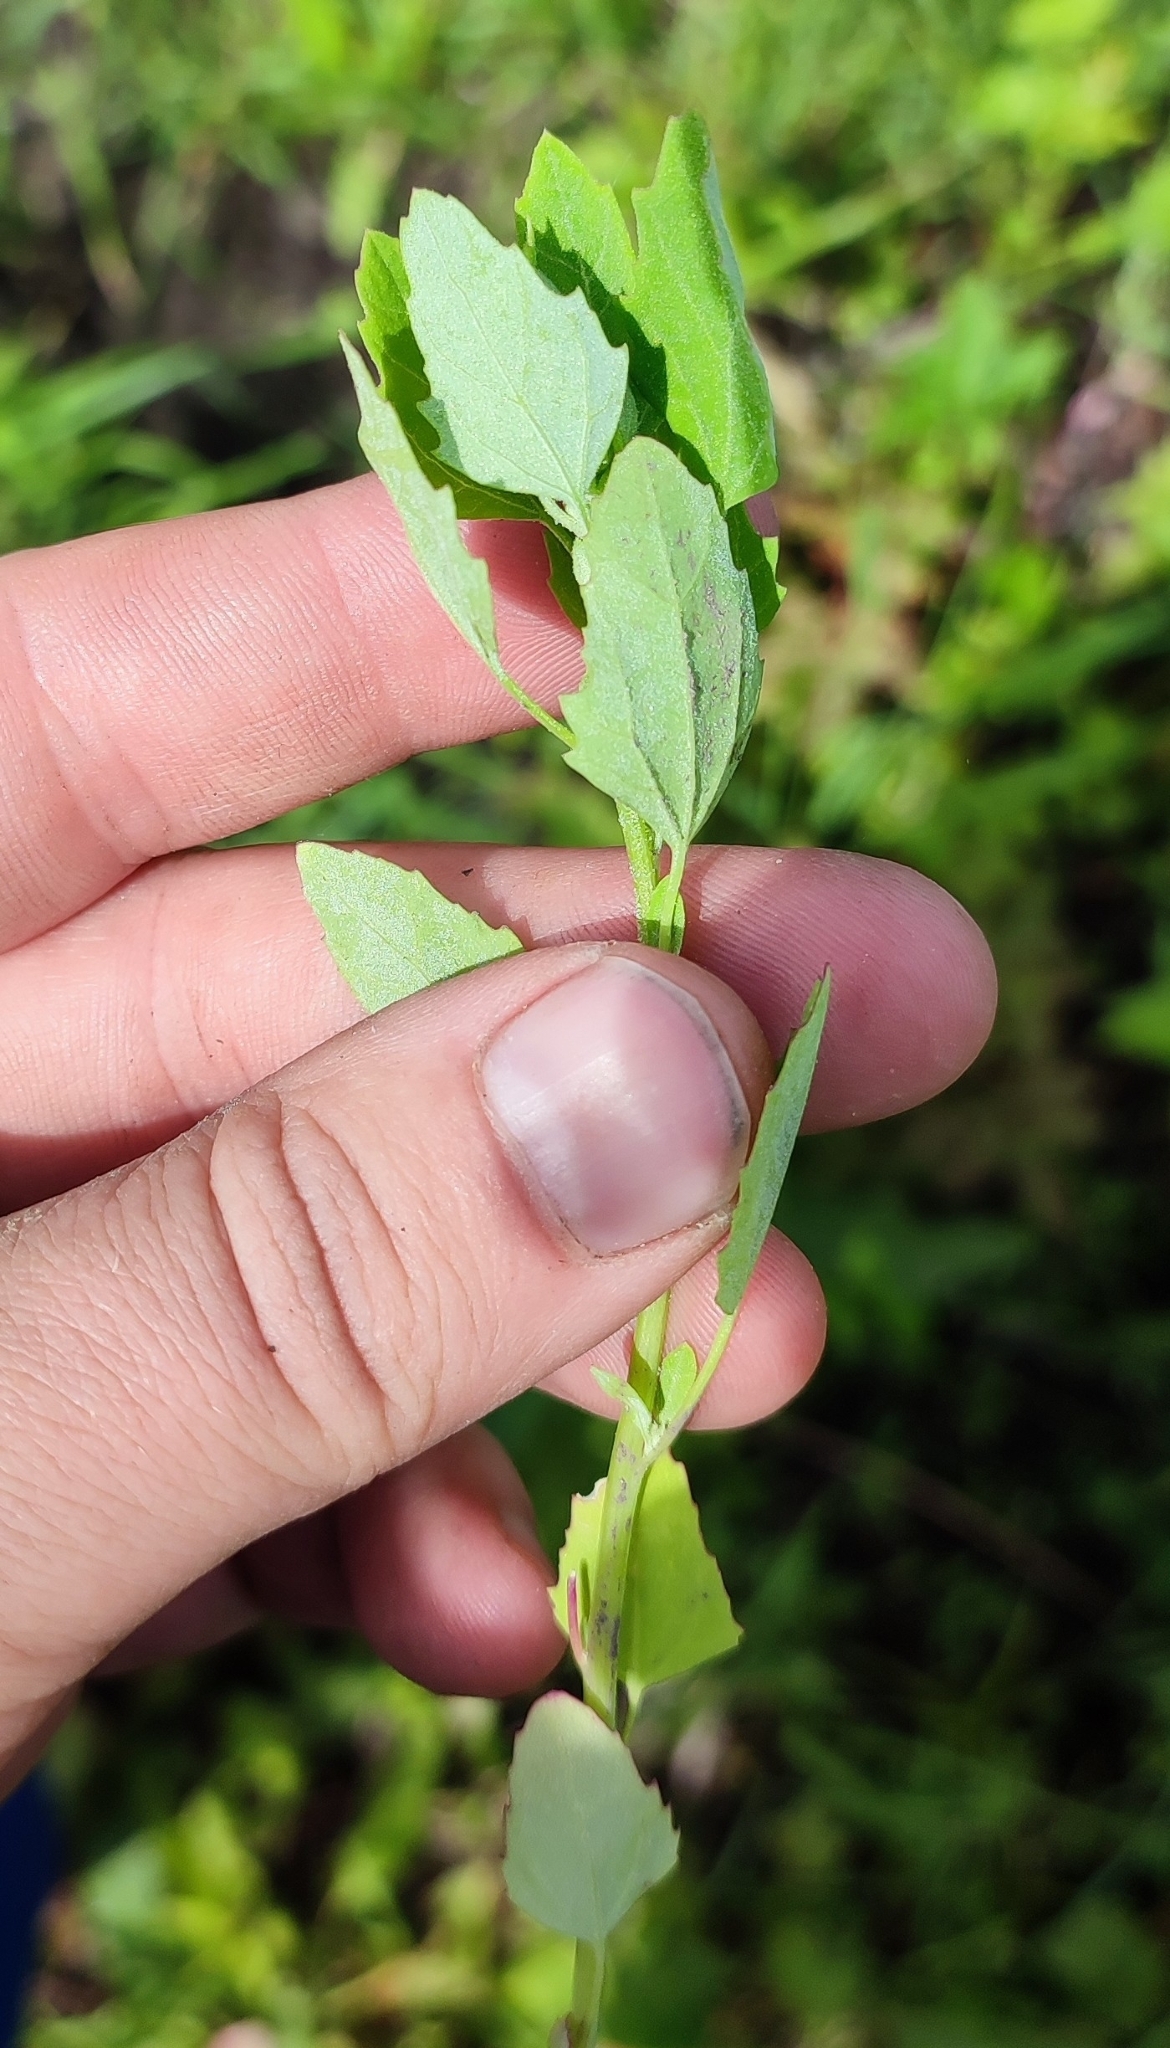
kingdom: Plantae
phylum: Tracheophyta
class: Magnoliopsida
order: Caryophyllales
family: Amaranthaceae
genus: Chenopodium
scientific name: Chenopodium album
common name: Fat-hen
